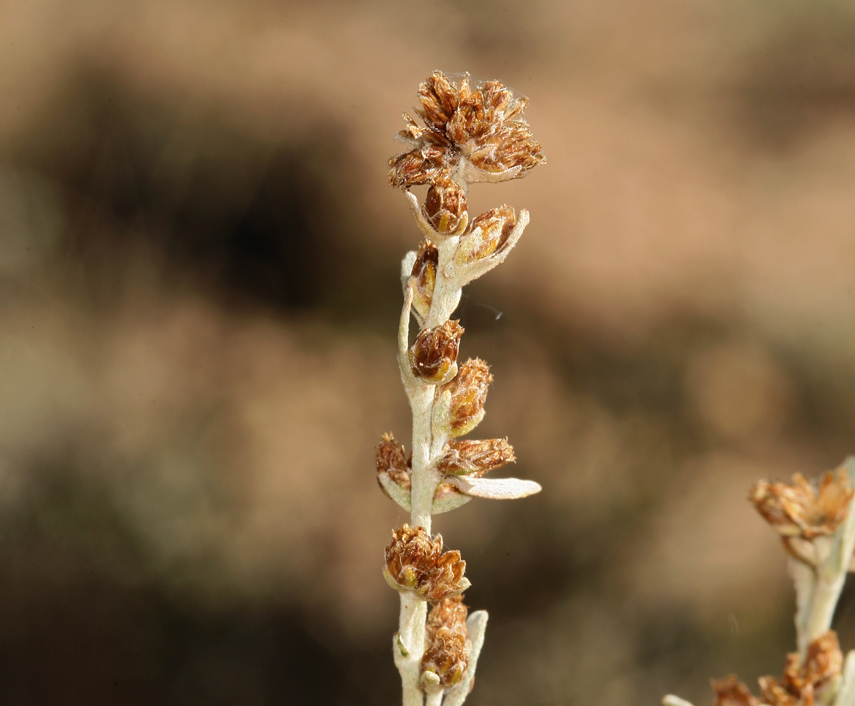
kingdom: Plantae
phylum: Tracheophyta
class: Magnoliopsida
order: Asterales
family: Asteraceae
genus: Artemisia
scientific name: Artemisia rothrockii
